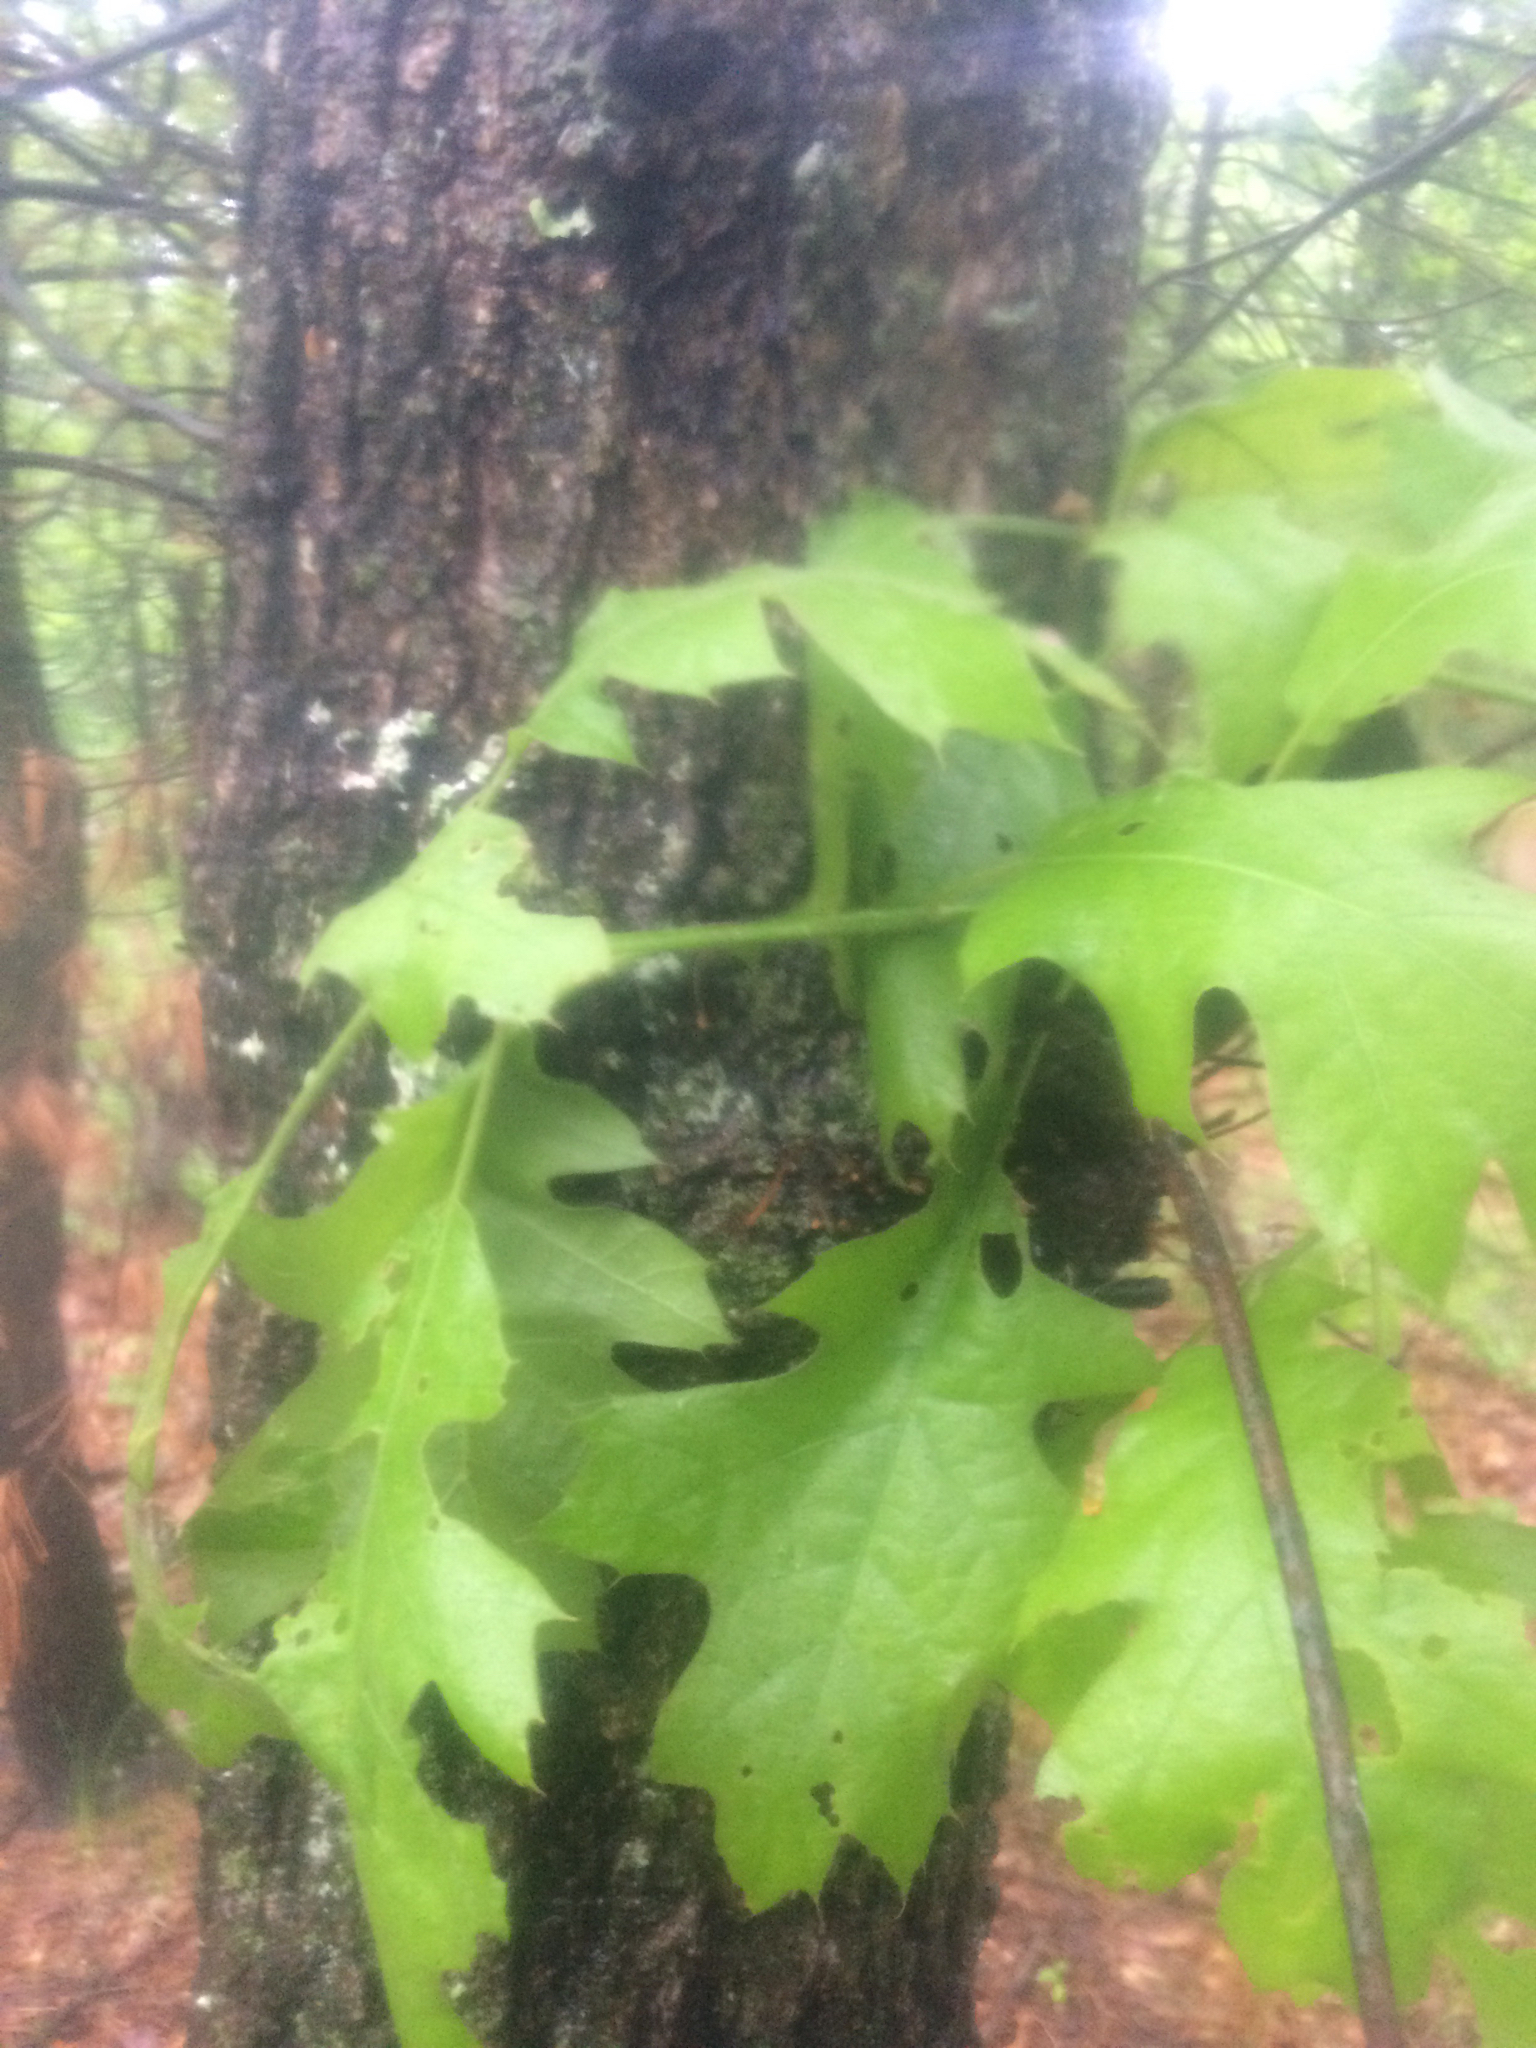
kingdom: Plantae
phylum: Tracheophyta
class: Magnoliopsida
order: Fagales
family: Fagaceae
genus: Quercus
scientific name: Quercus velutina
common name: Black oak
